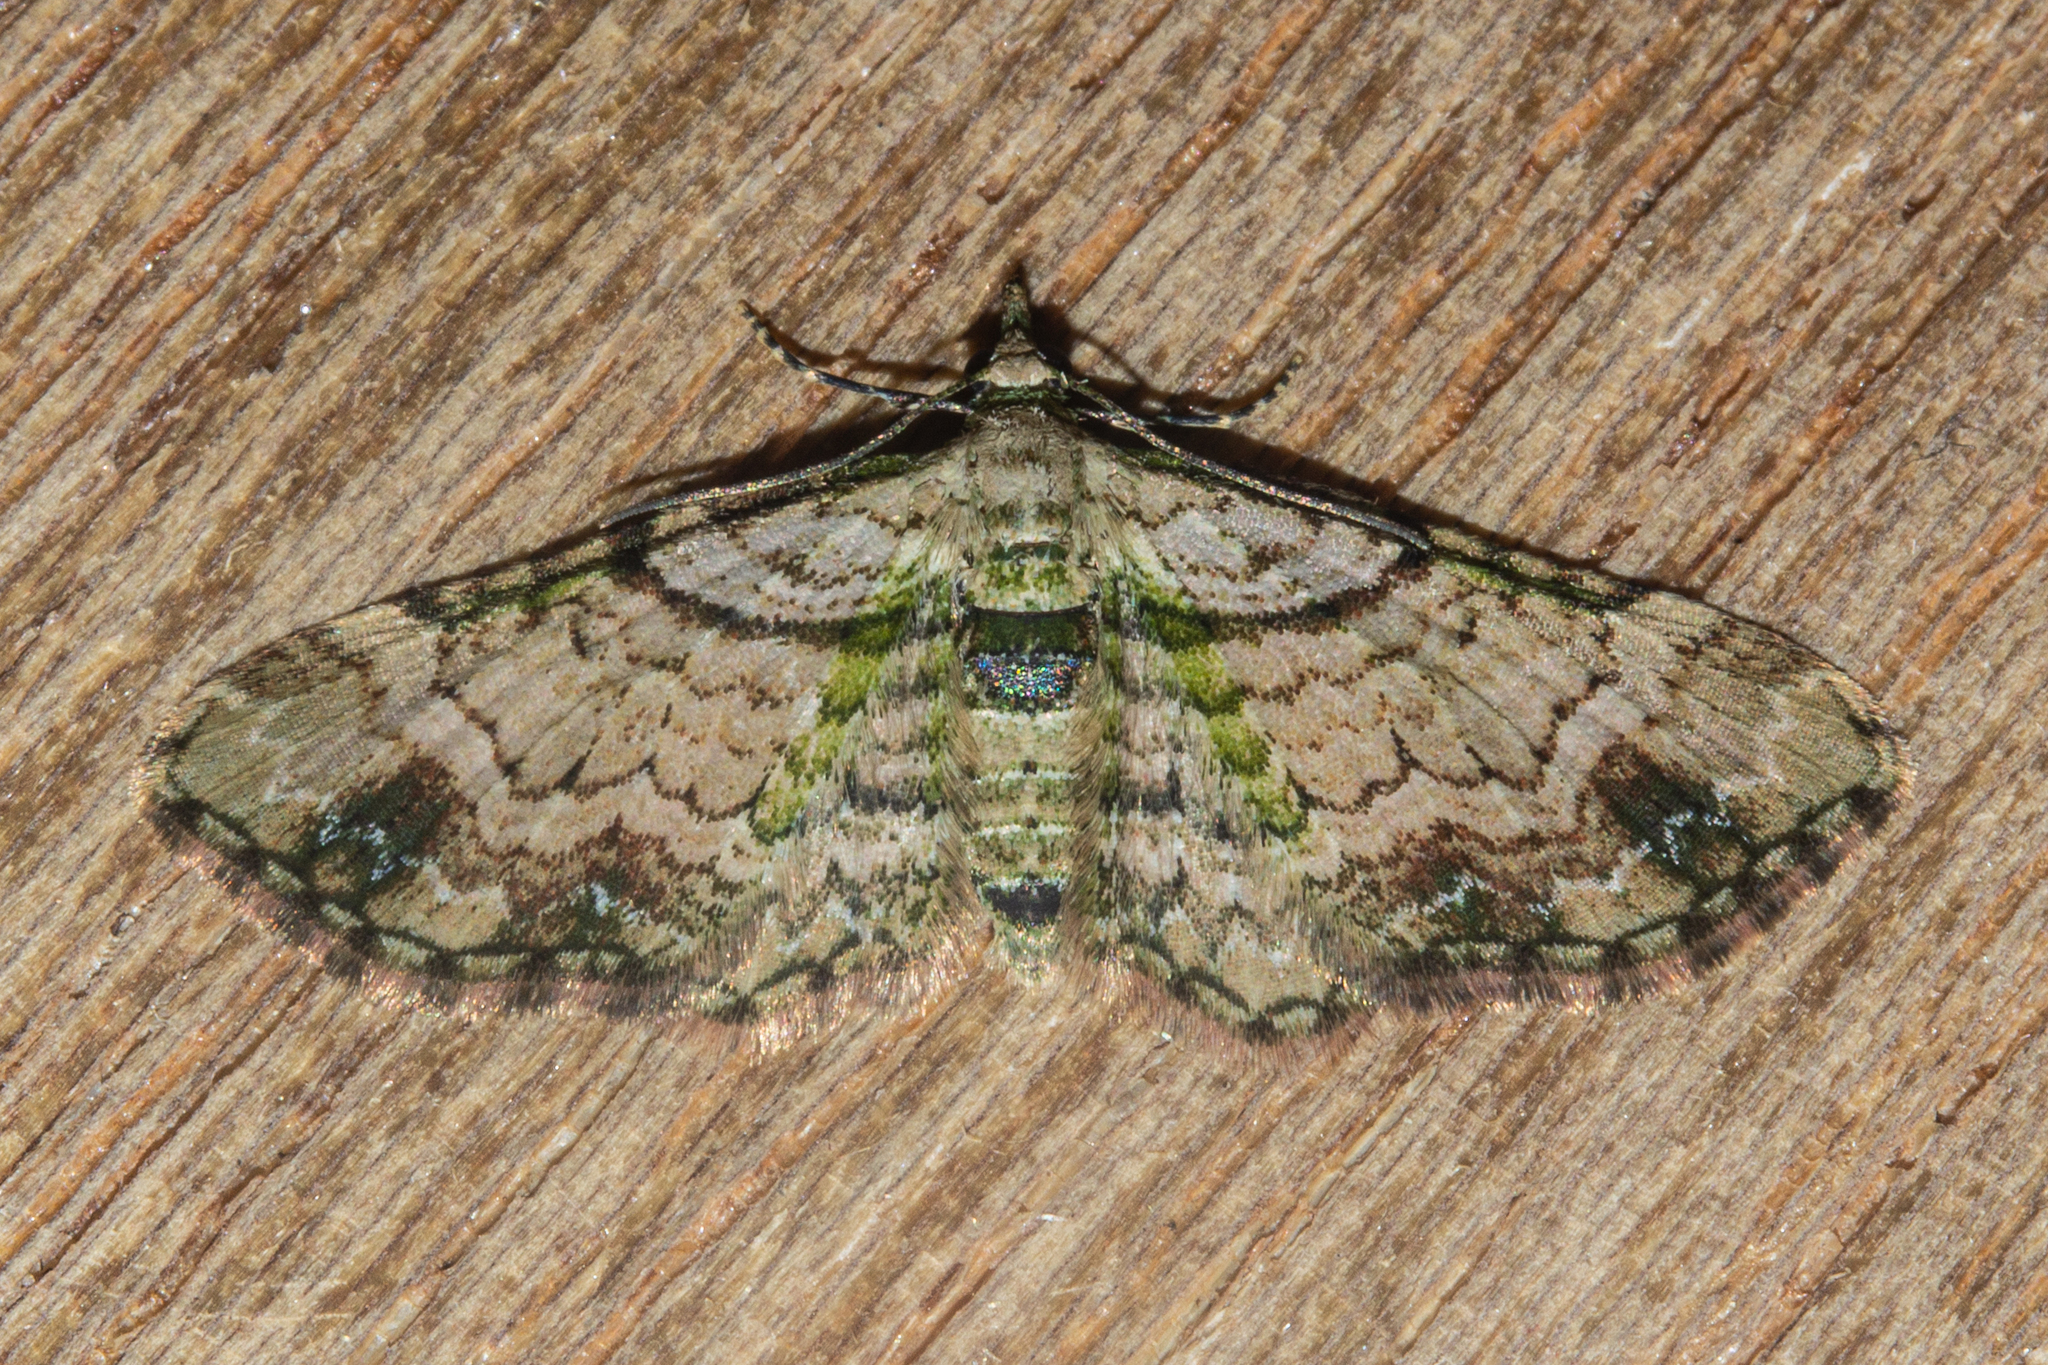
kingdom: Animalia
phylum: Arthropoda
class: Insecta
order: Lepidoptera
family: Geometridae
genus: Chloroclystis
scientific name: Chloroclystis
